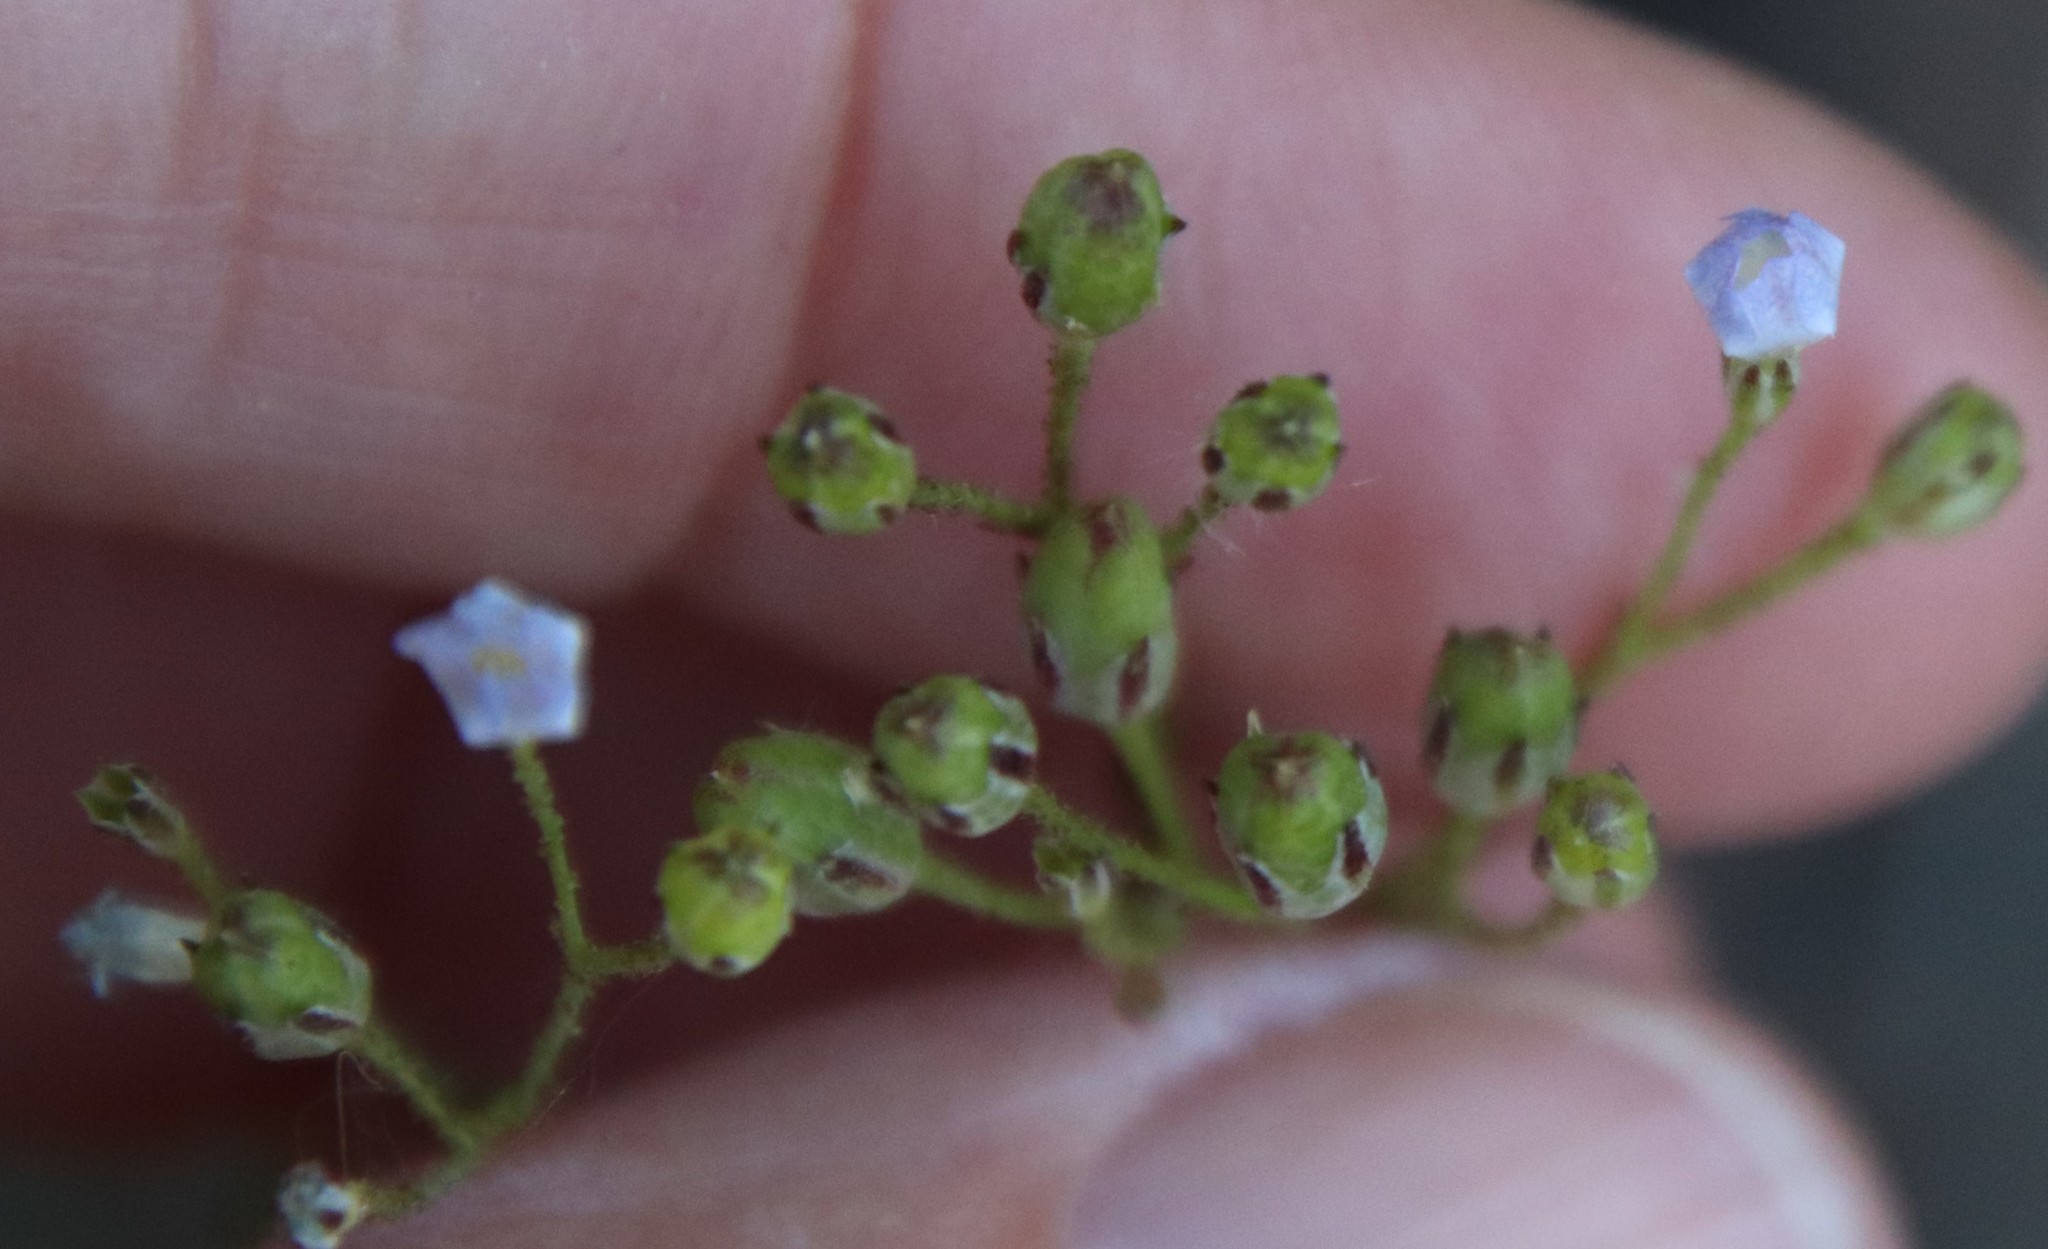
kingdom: Plantae
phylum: Tracheophyta
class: Magnoliopsida
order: Ericales
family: Polemoniaceae
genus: Saltugilia
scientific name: Saltugilia australis
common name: Southern gilia
